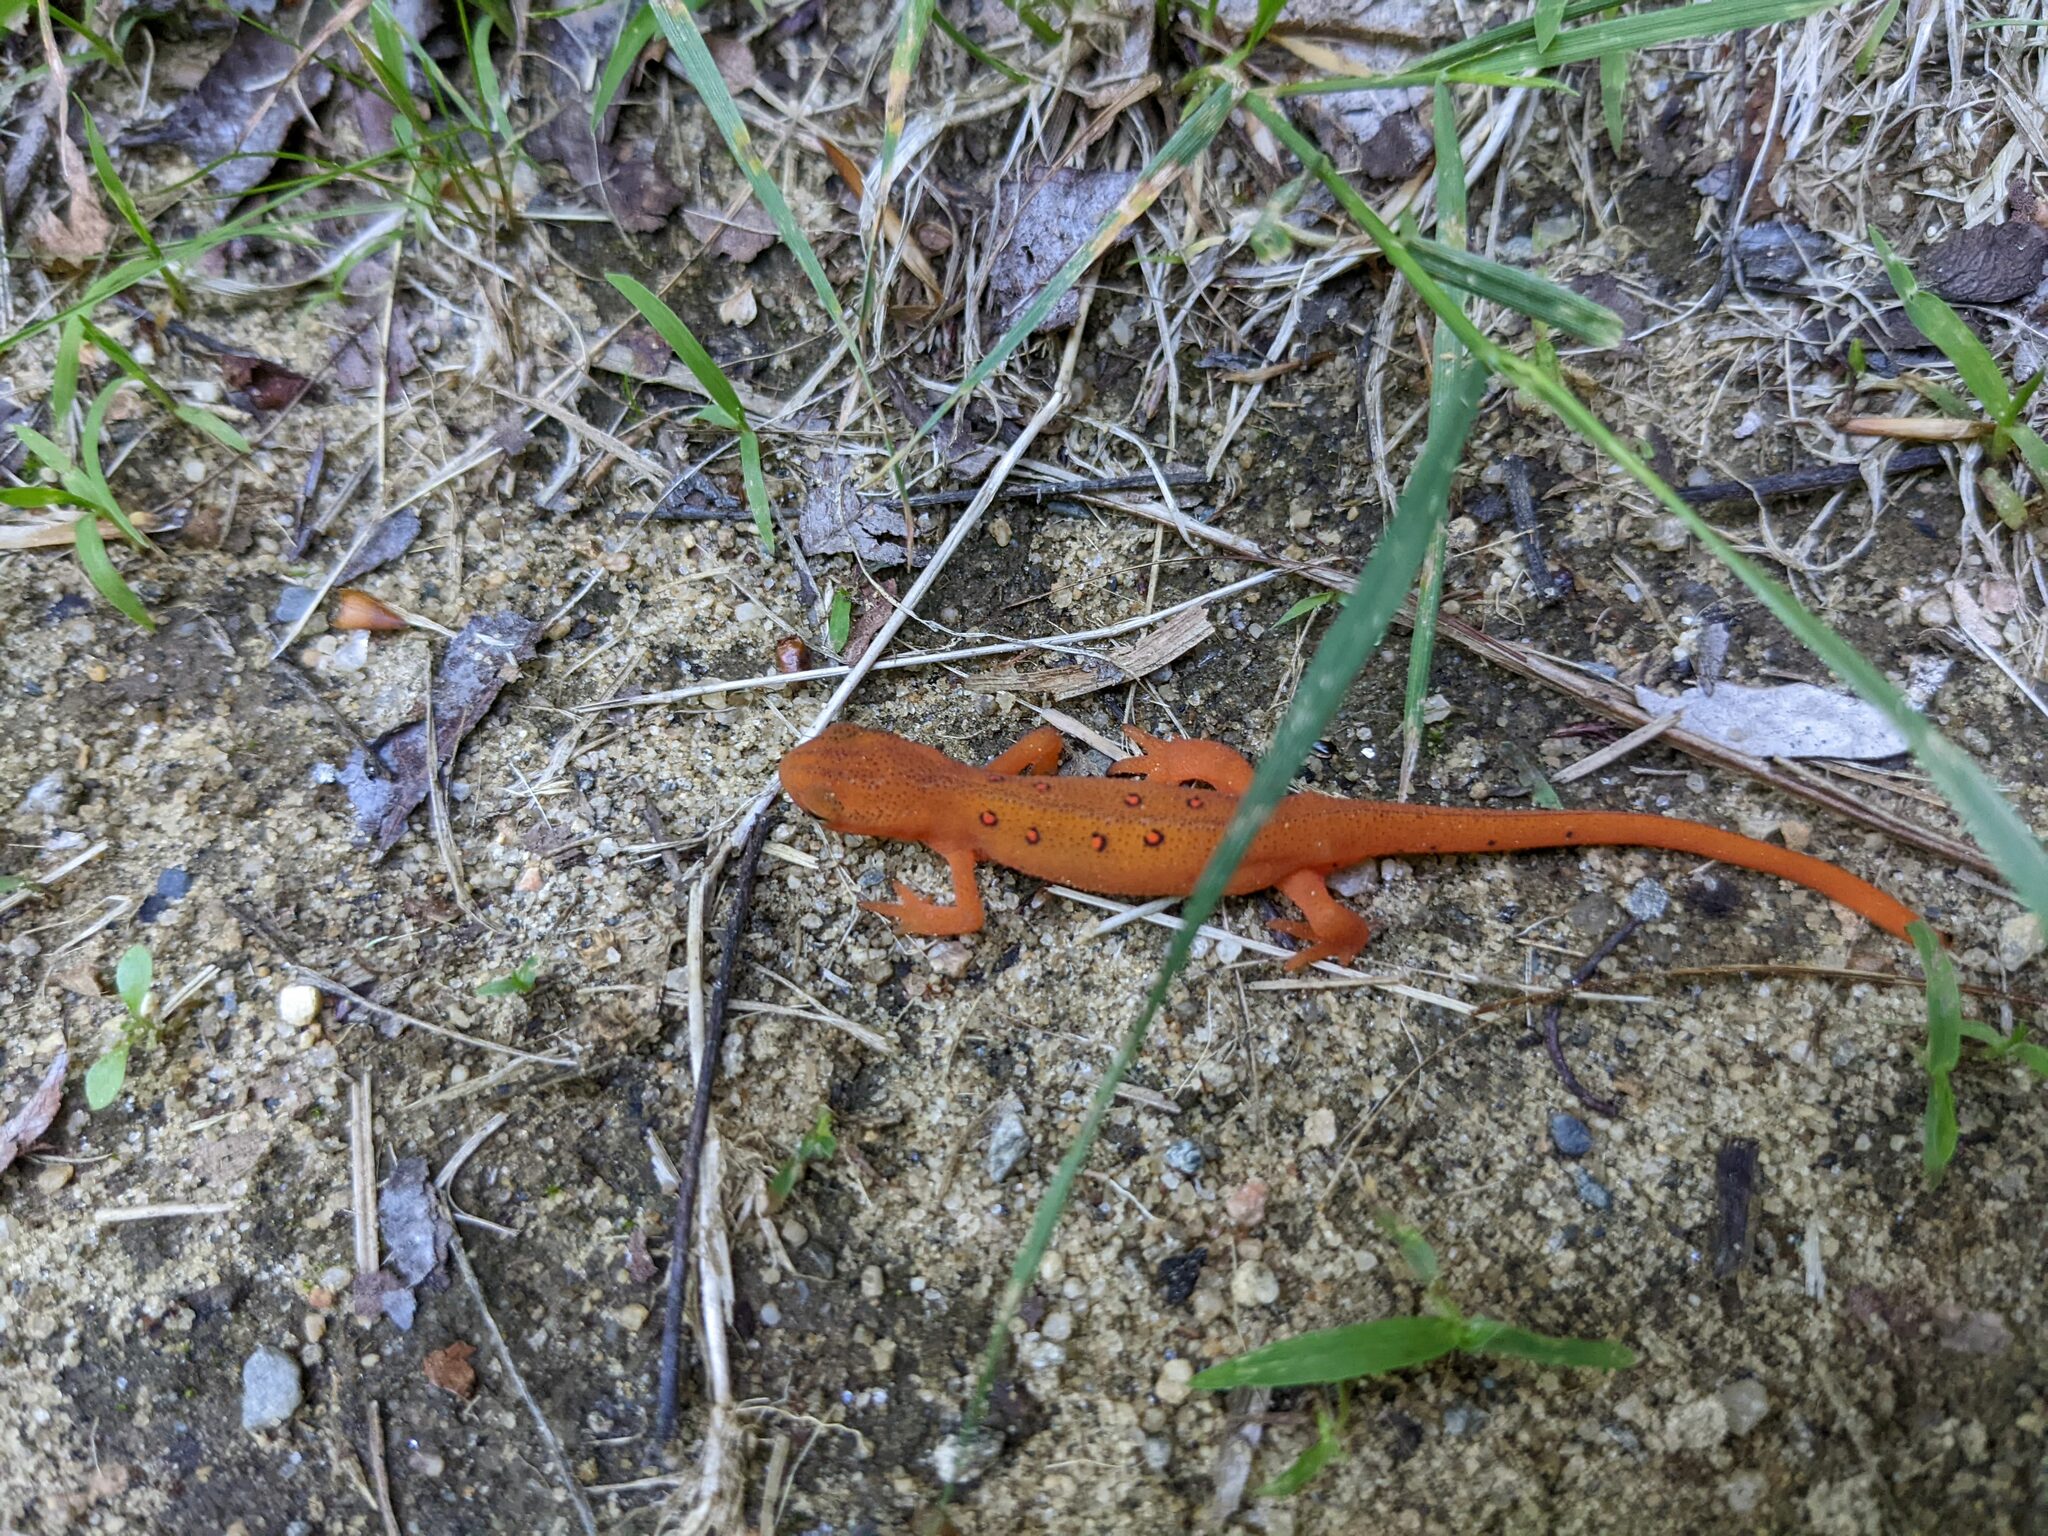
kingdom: Animalia
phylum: Chordata
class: Amphibia
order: Caudata
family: Salamandridae
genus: Notophthalmus
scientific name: Notophthalmus viridescens
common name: Eastern newt
